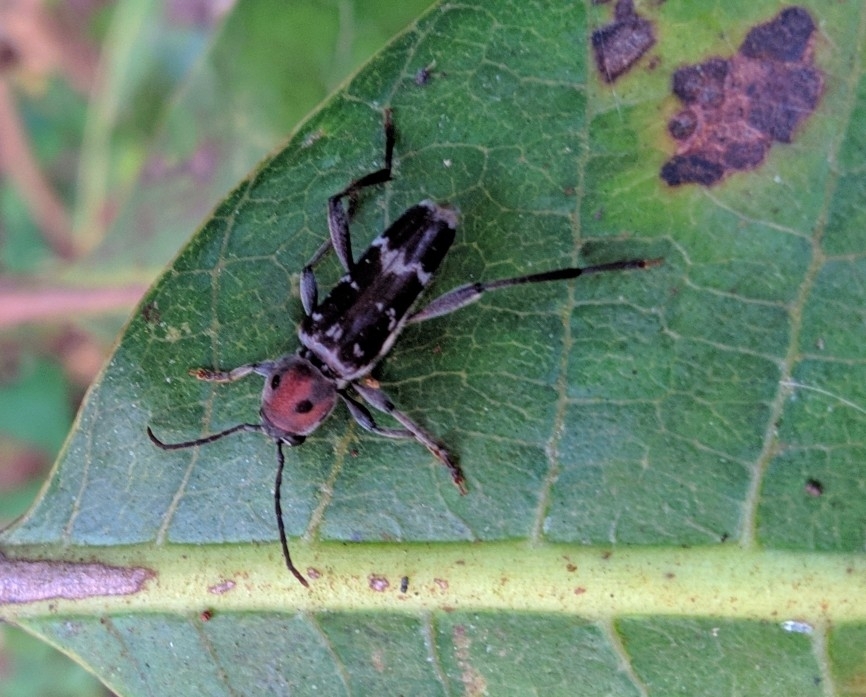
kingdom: Animalia
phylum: Arthropoda
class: Insecta
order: Coleoptera
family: Cerambycidae
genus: Xylotrechus
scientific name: Xylotrechus smei
